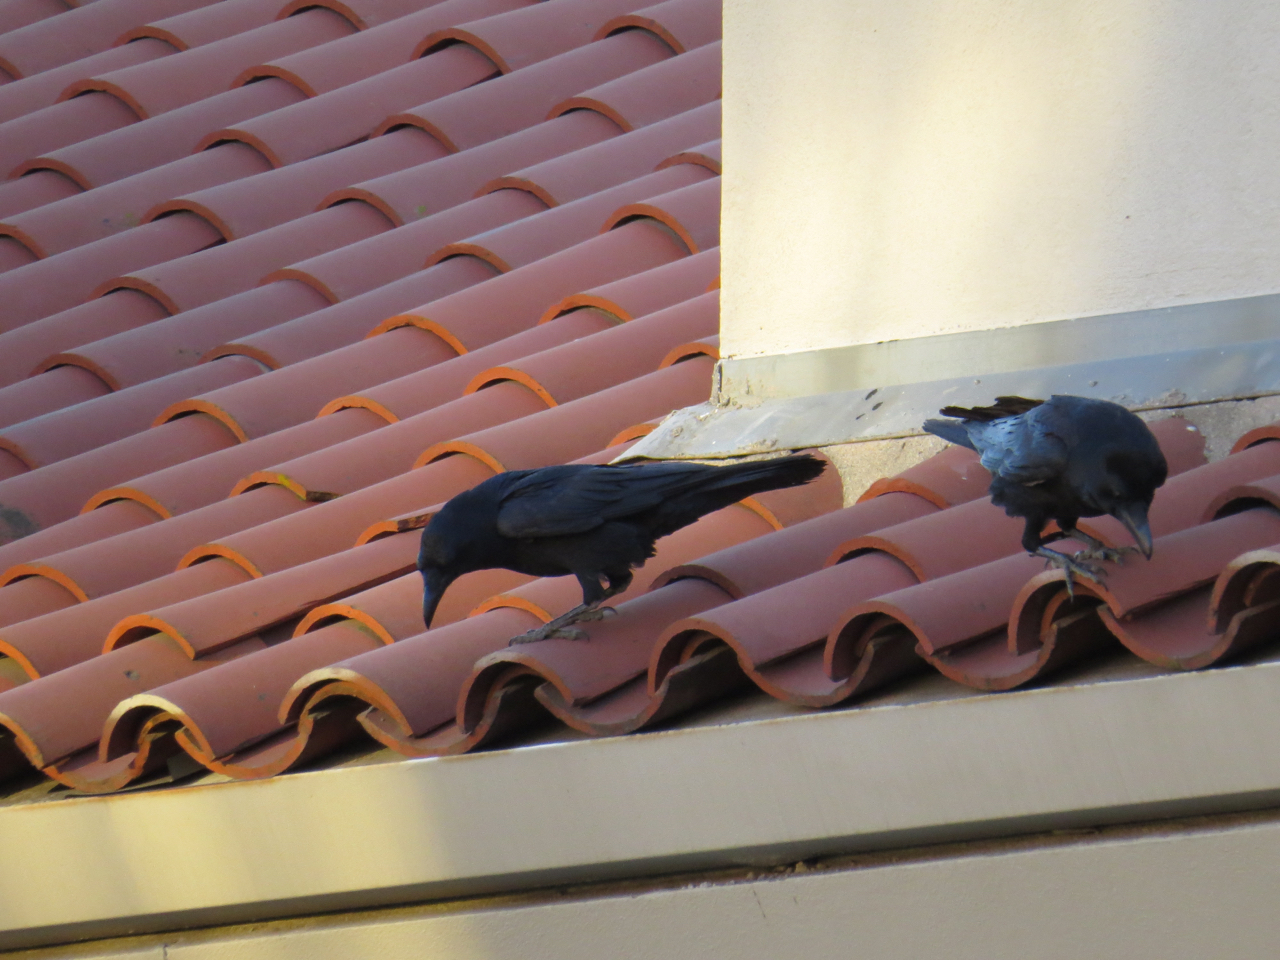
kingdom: Animalia
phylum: Chordata
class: Aves
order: Passeriformes
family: Corvidae
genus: Corvus
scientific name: Corvus corax
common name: Common raven
